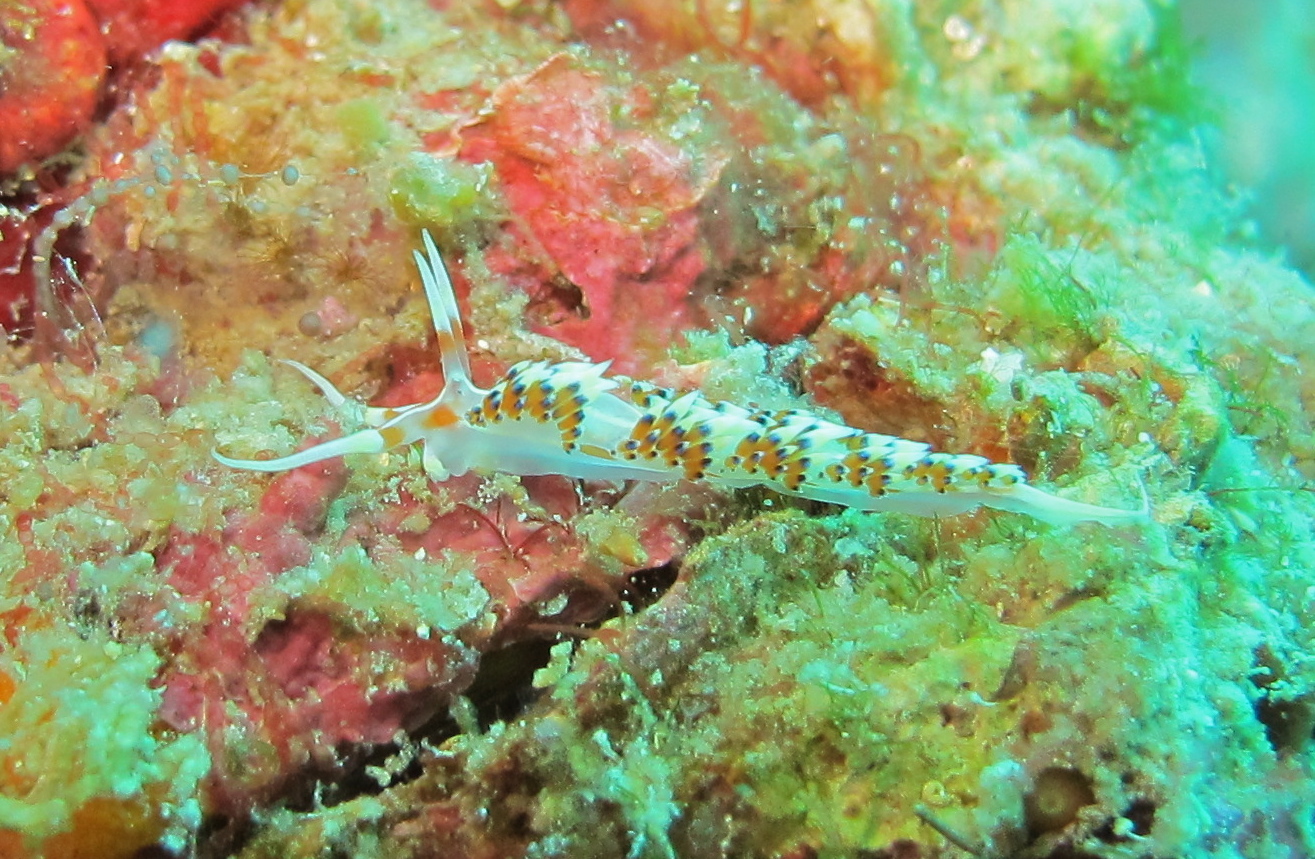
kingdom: Animalia
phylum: Mollusca
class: Gastropoda
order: Nudibranchia
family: Facelinidae
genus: Caloria
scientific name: Caloria indica
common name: Sea slug
